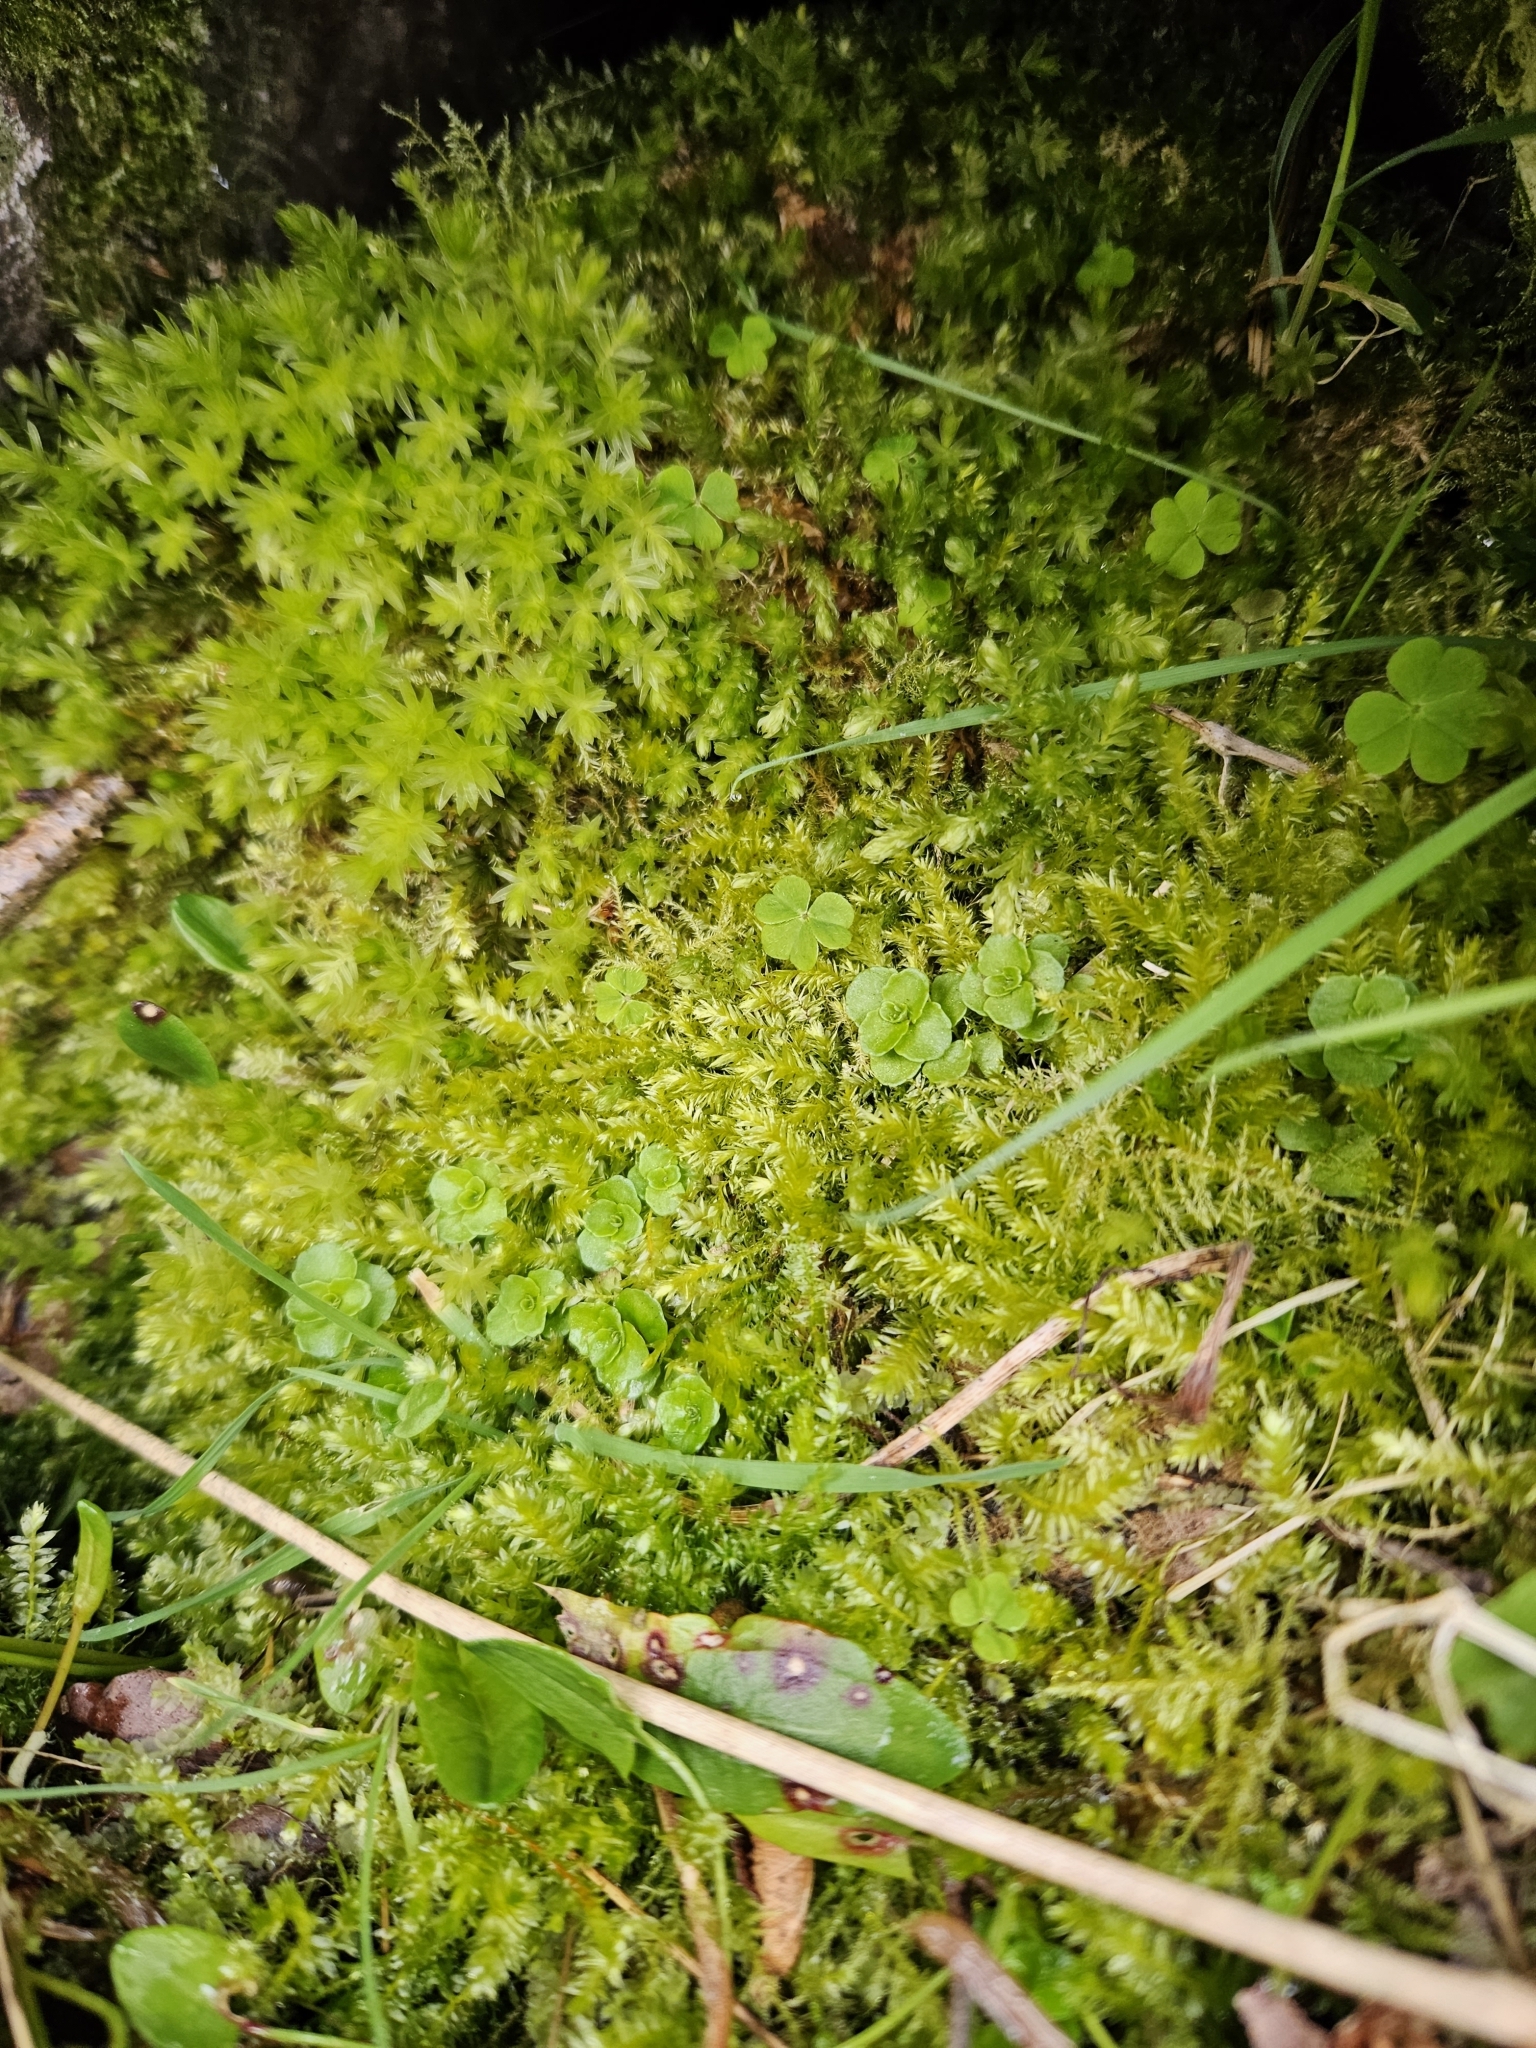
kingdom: Plantae
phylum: Bryophyta
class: Bryopsida
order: Hypnales
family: Plagiotheciaceae
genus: Plagiothecium
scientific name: Plagiothecium nemorale
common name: Woodsy silk-moss
